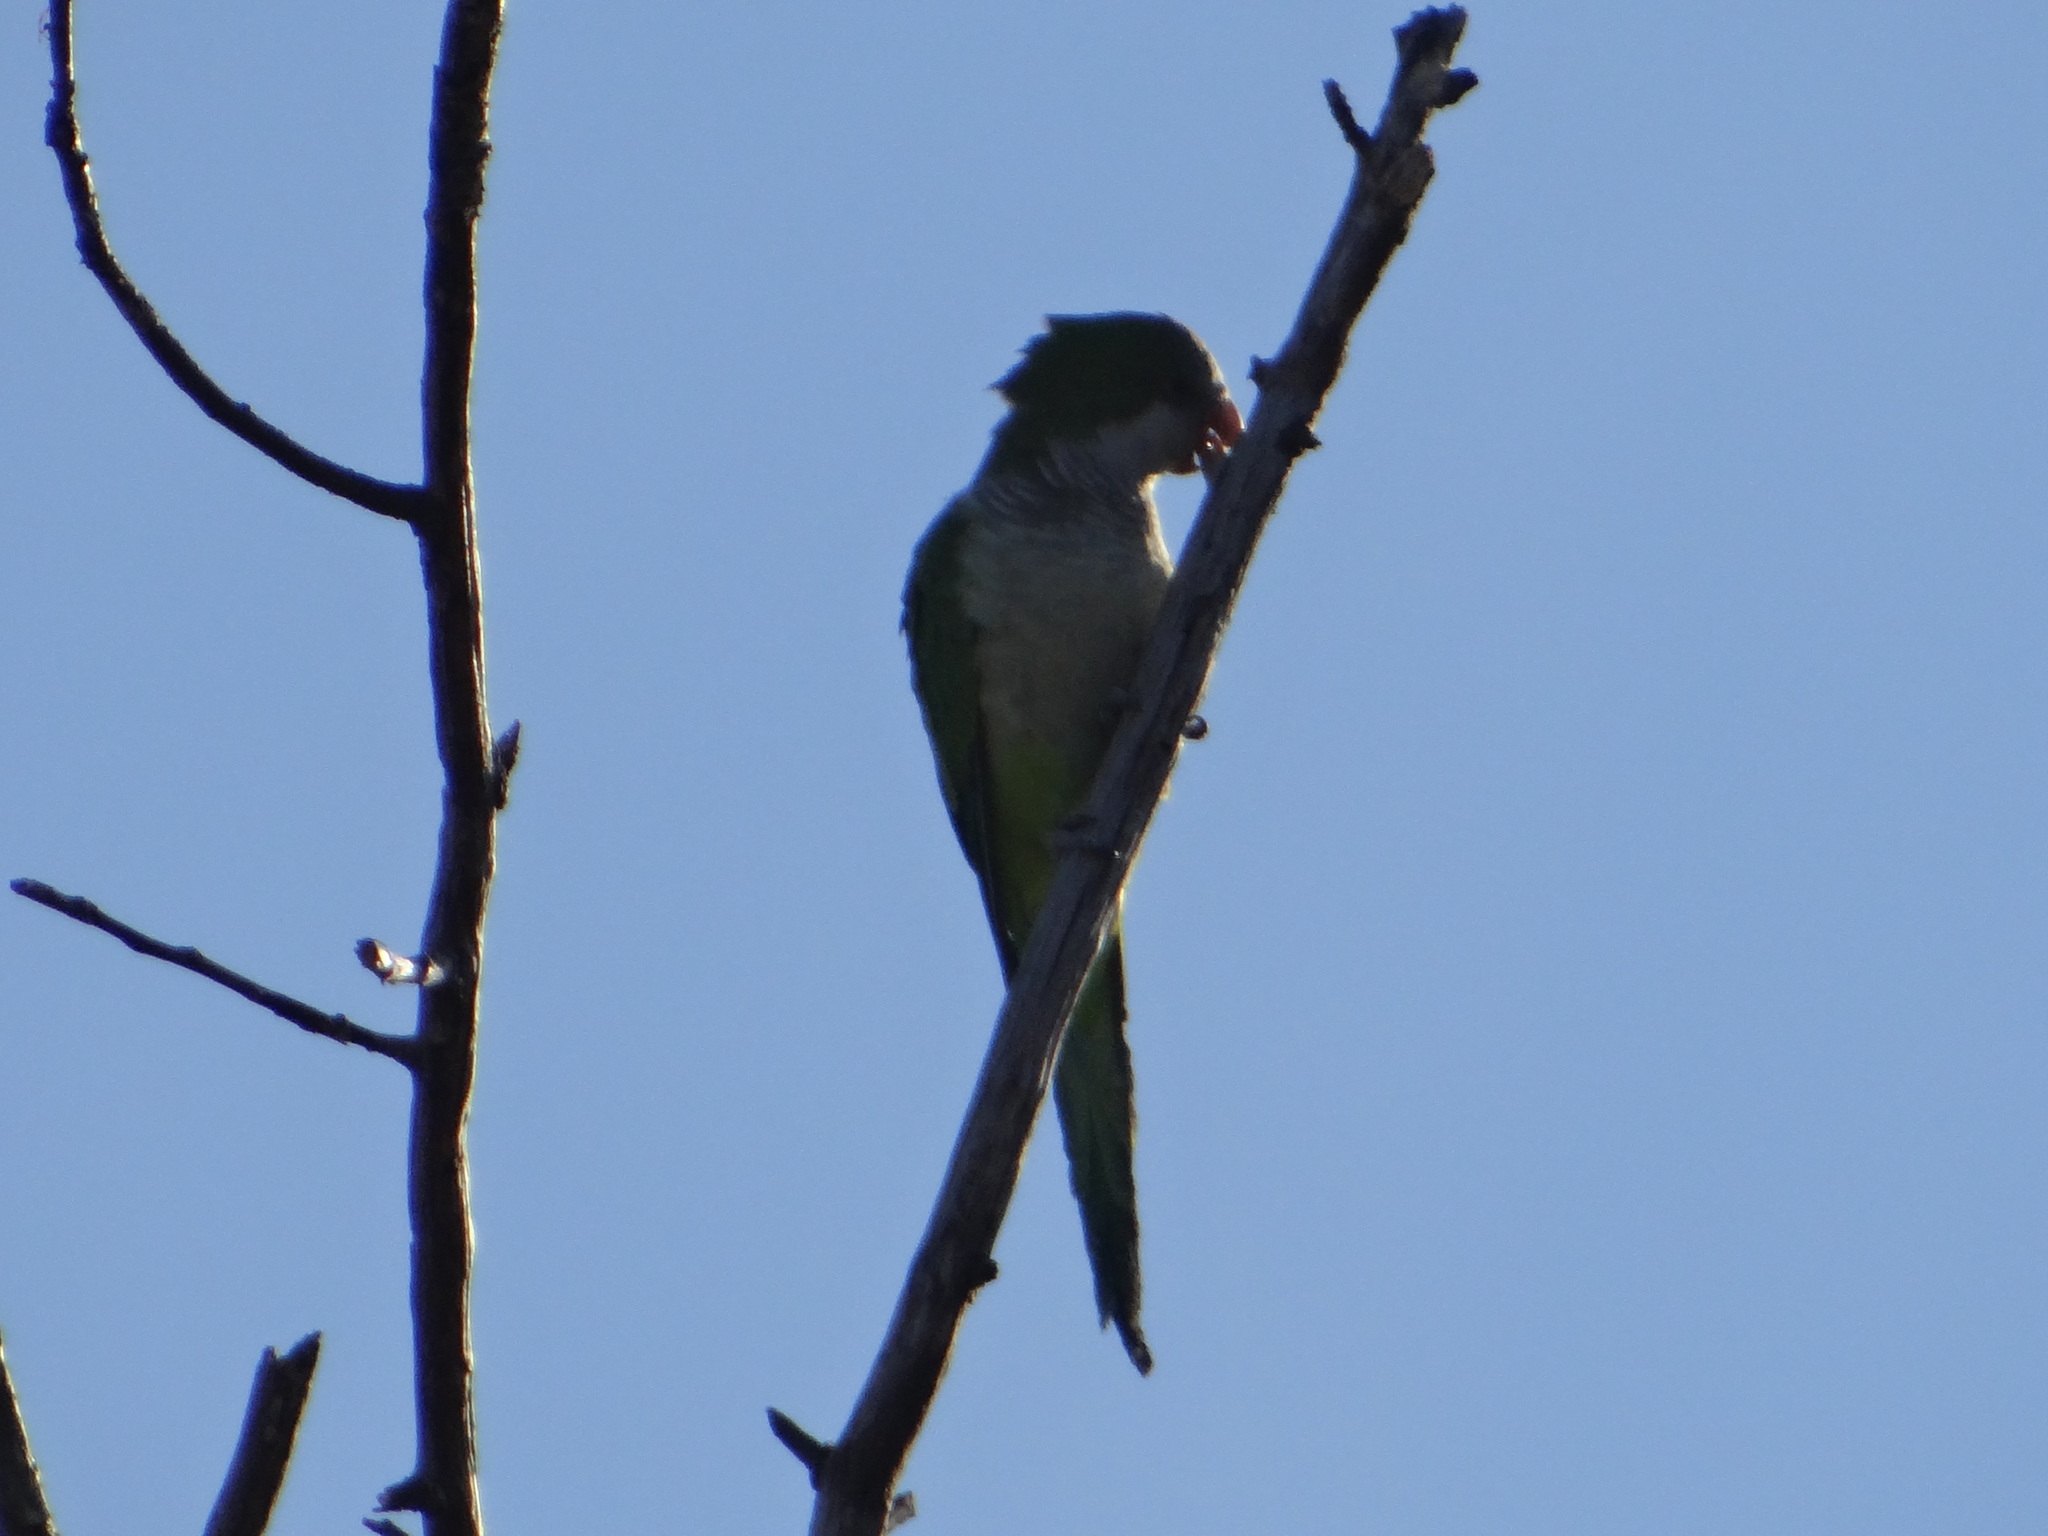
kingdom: Animalia
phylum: Chordata
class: Aves
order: Psittaciformes
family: Psittacidae
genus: Myiopsitta
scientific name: Myiopsitta monachus
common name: Monk parakeet
